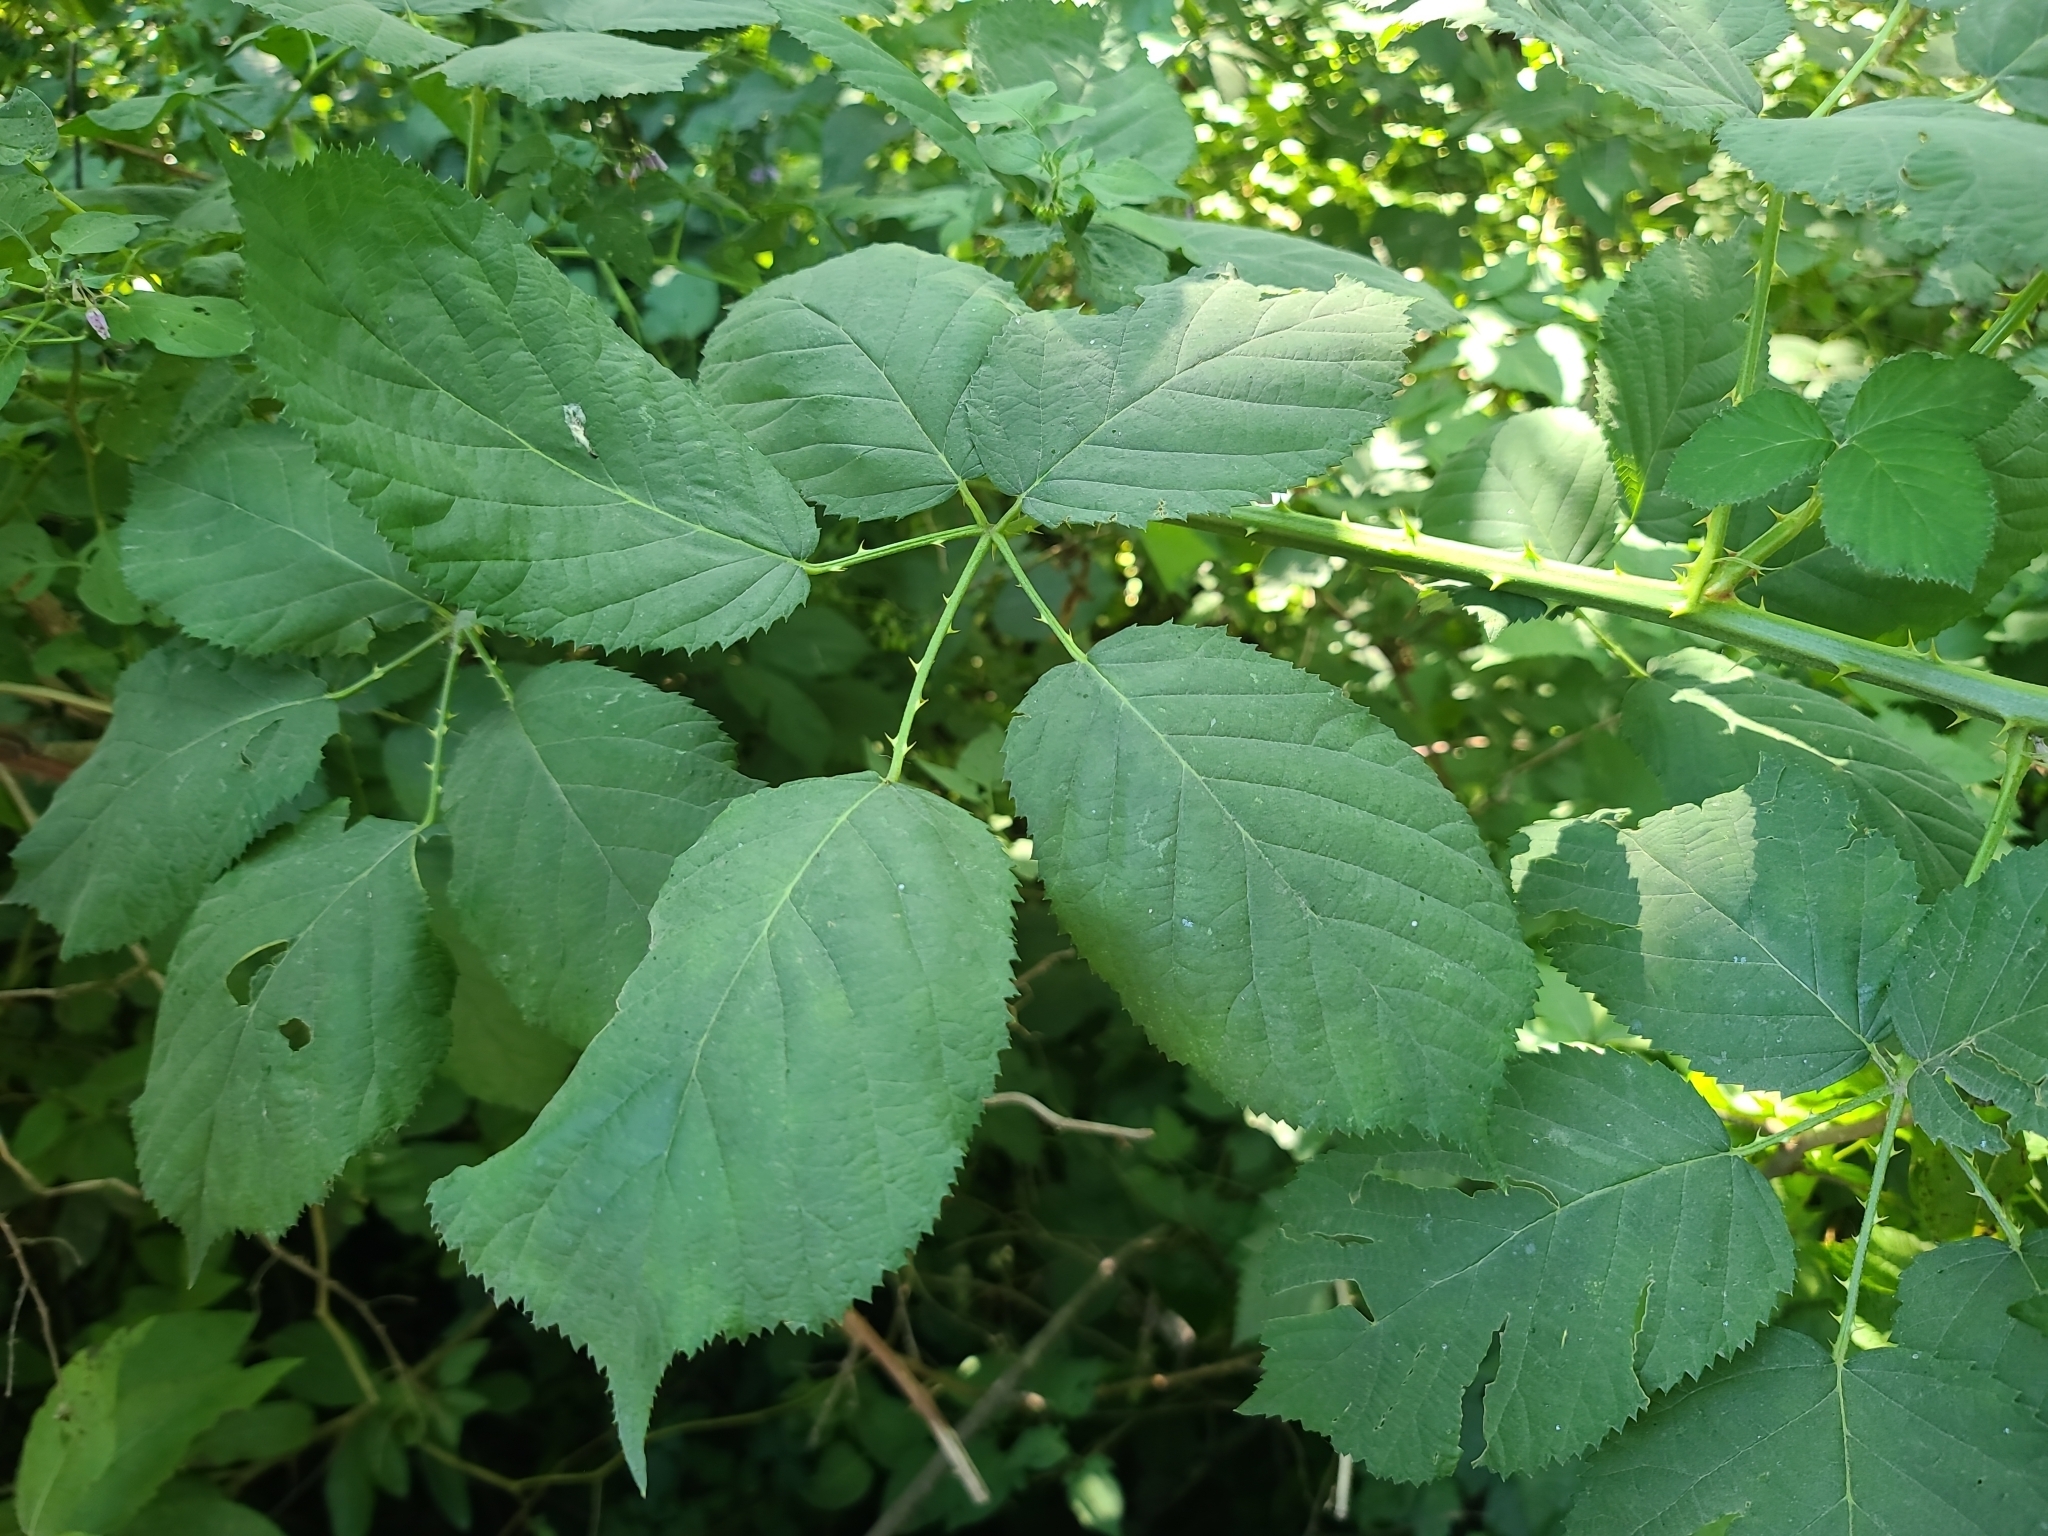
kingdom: Plantae
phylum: Tracheophyta
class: Magnoliopsida
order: Rosales
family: Rosaceae
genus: Rubus
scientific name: Rubus bifrons
